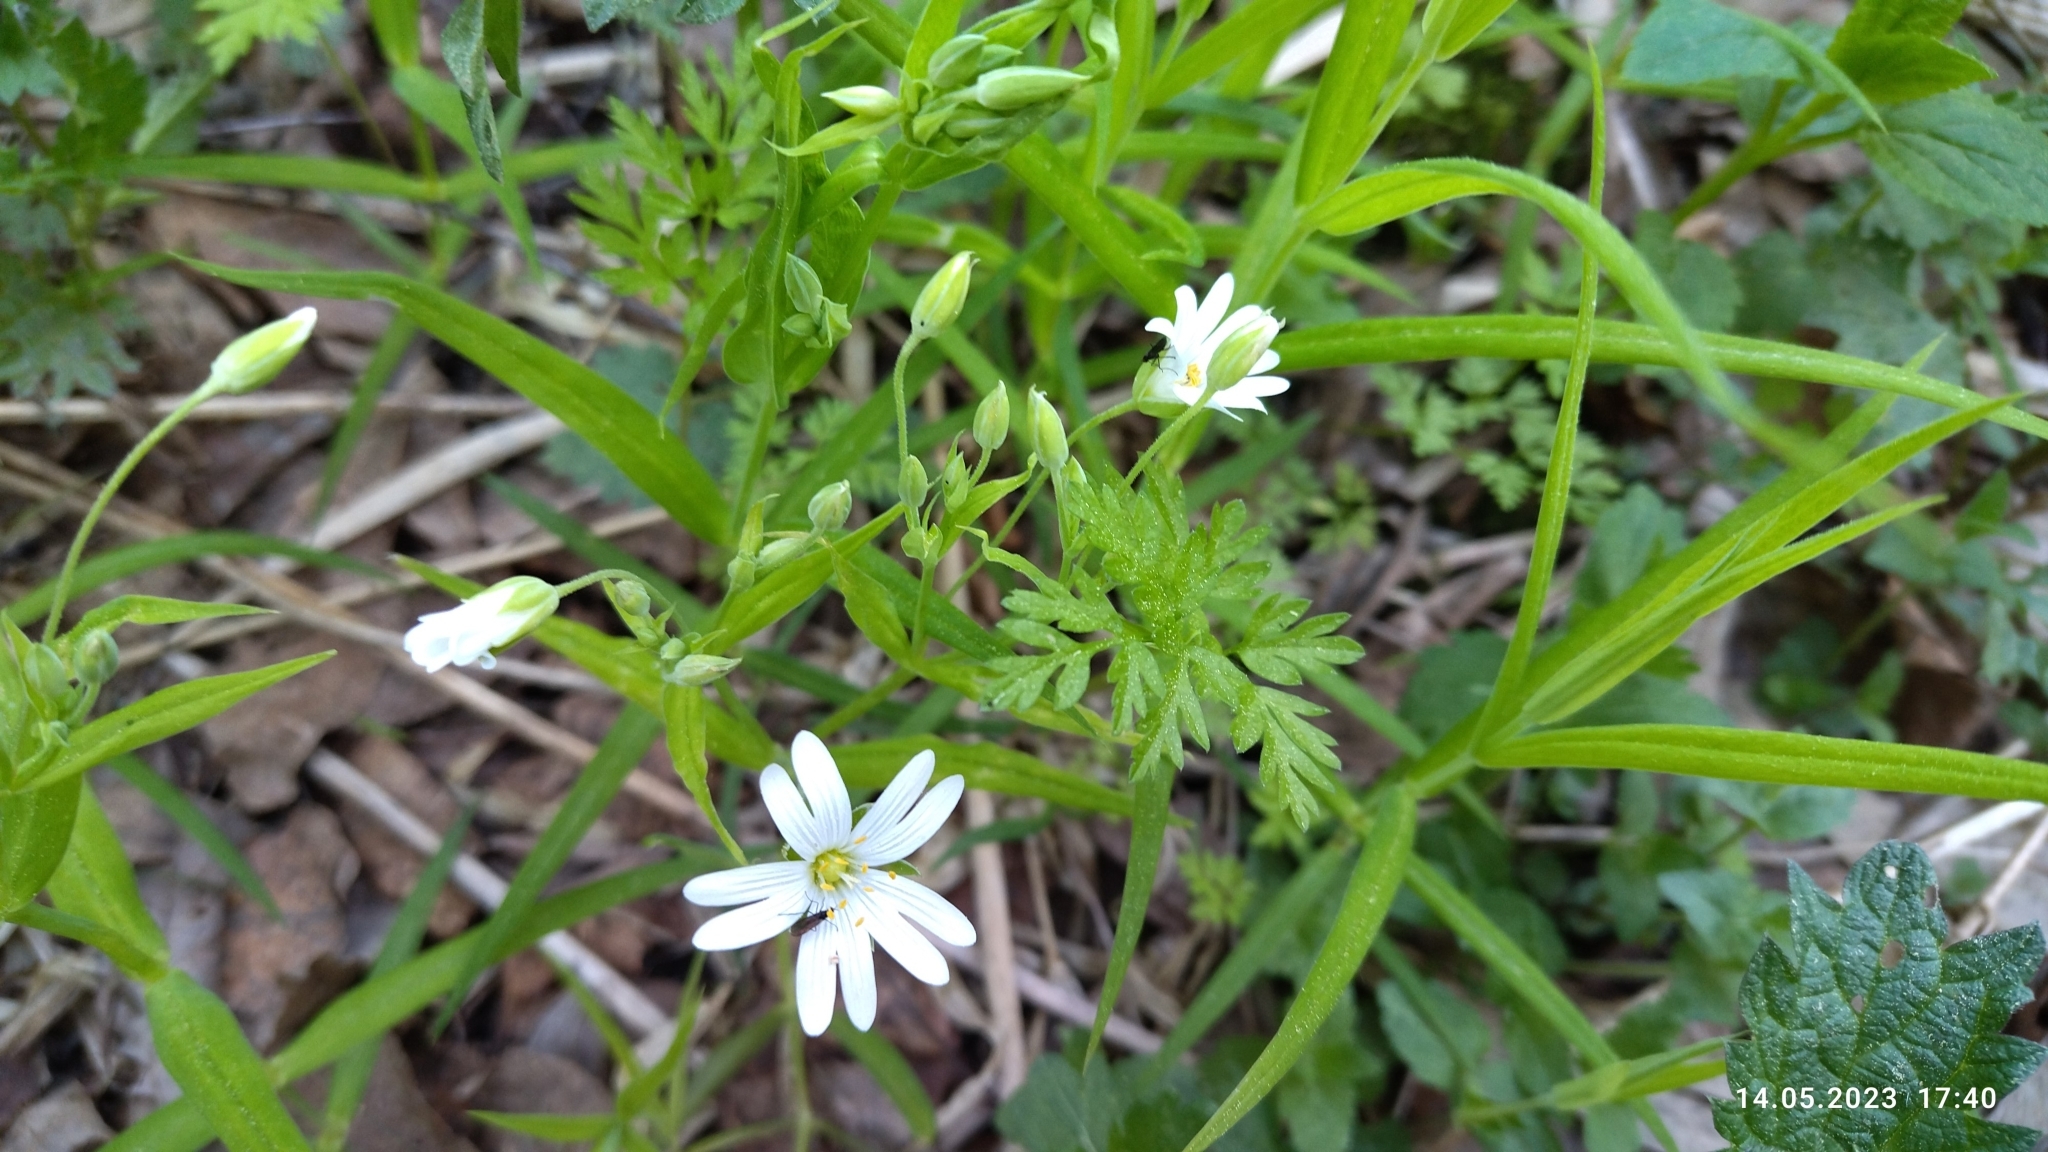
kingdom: Plantae
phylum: Tracheophyta
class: Magnoliopsida
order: Caryophyllales
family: Caryophyllaceae
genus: Rabelera
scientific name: Rabelera holostea
